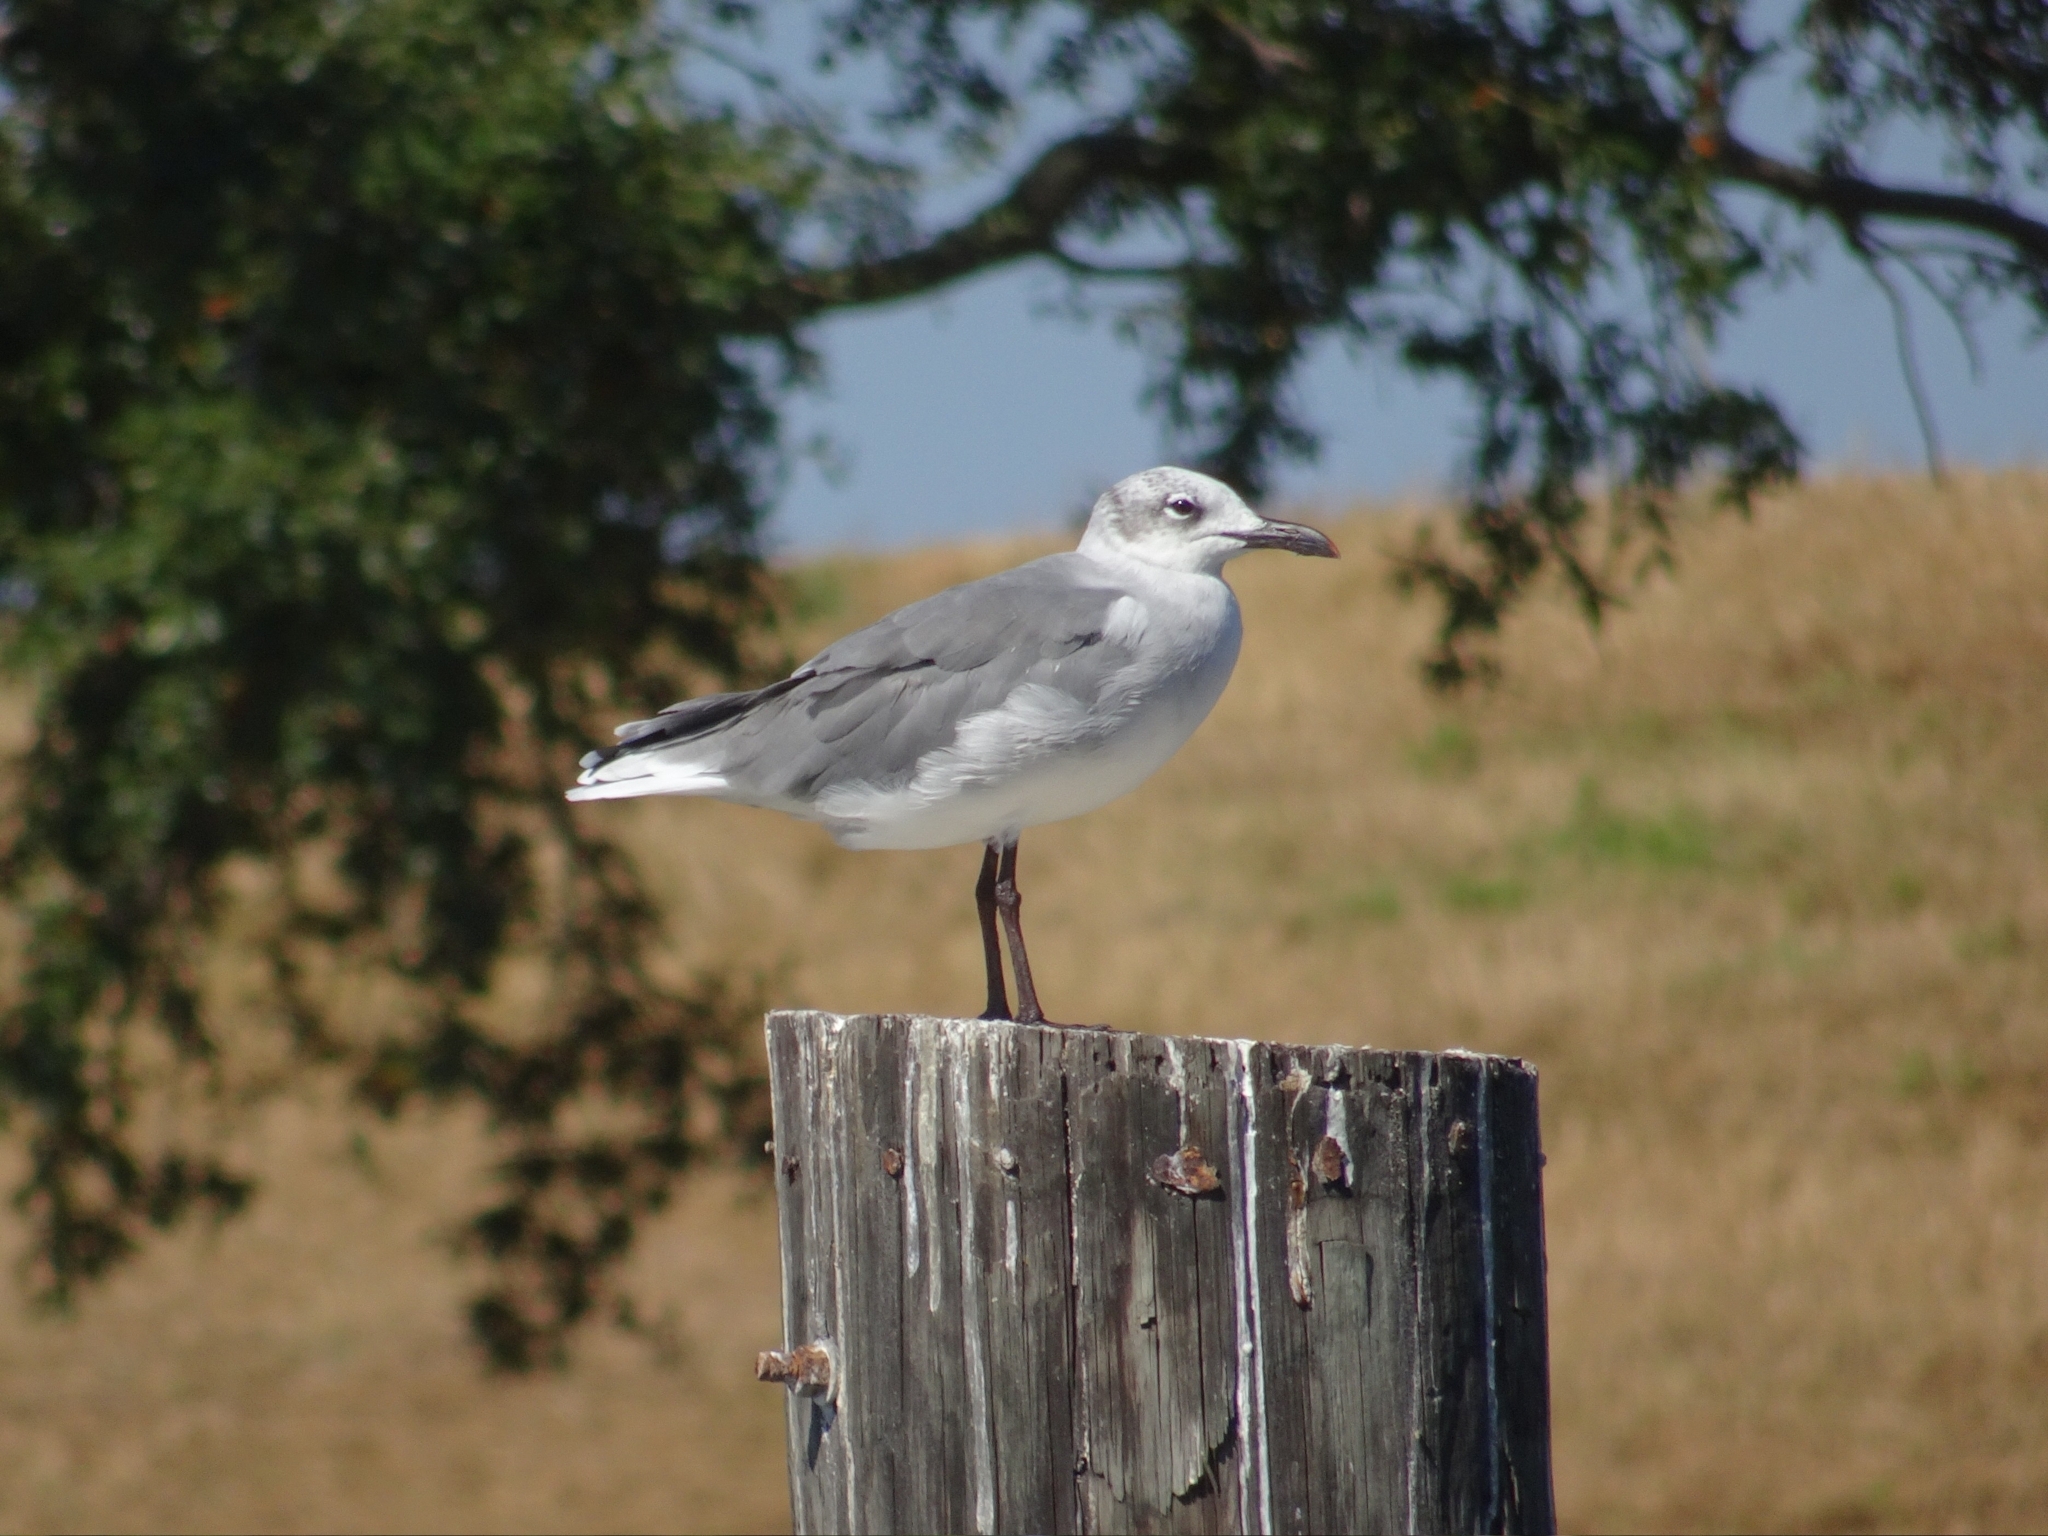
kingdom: Animalia
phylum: Chordata
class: Aves
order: Charadriiformes
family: Laridae
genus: Leucophaeus
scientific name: Leucophaeus atricilla
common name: Laughing gull
